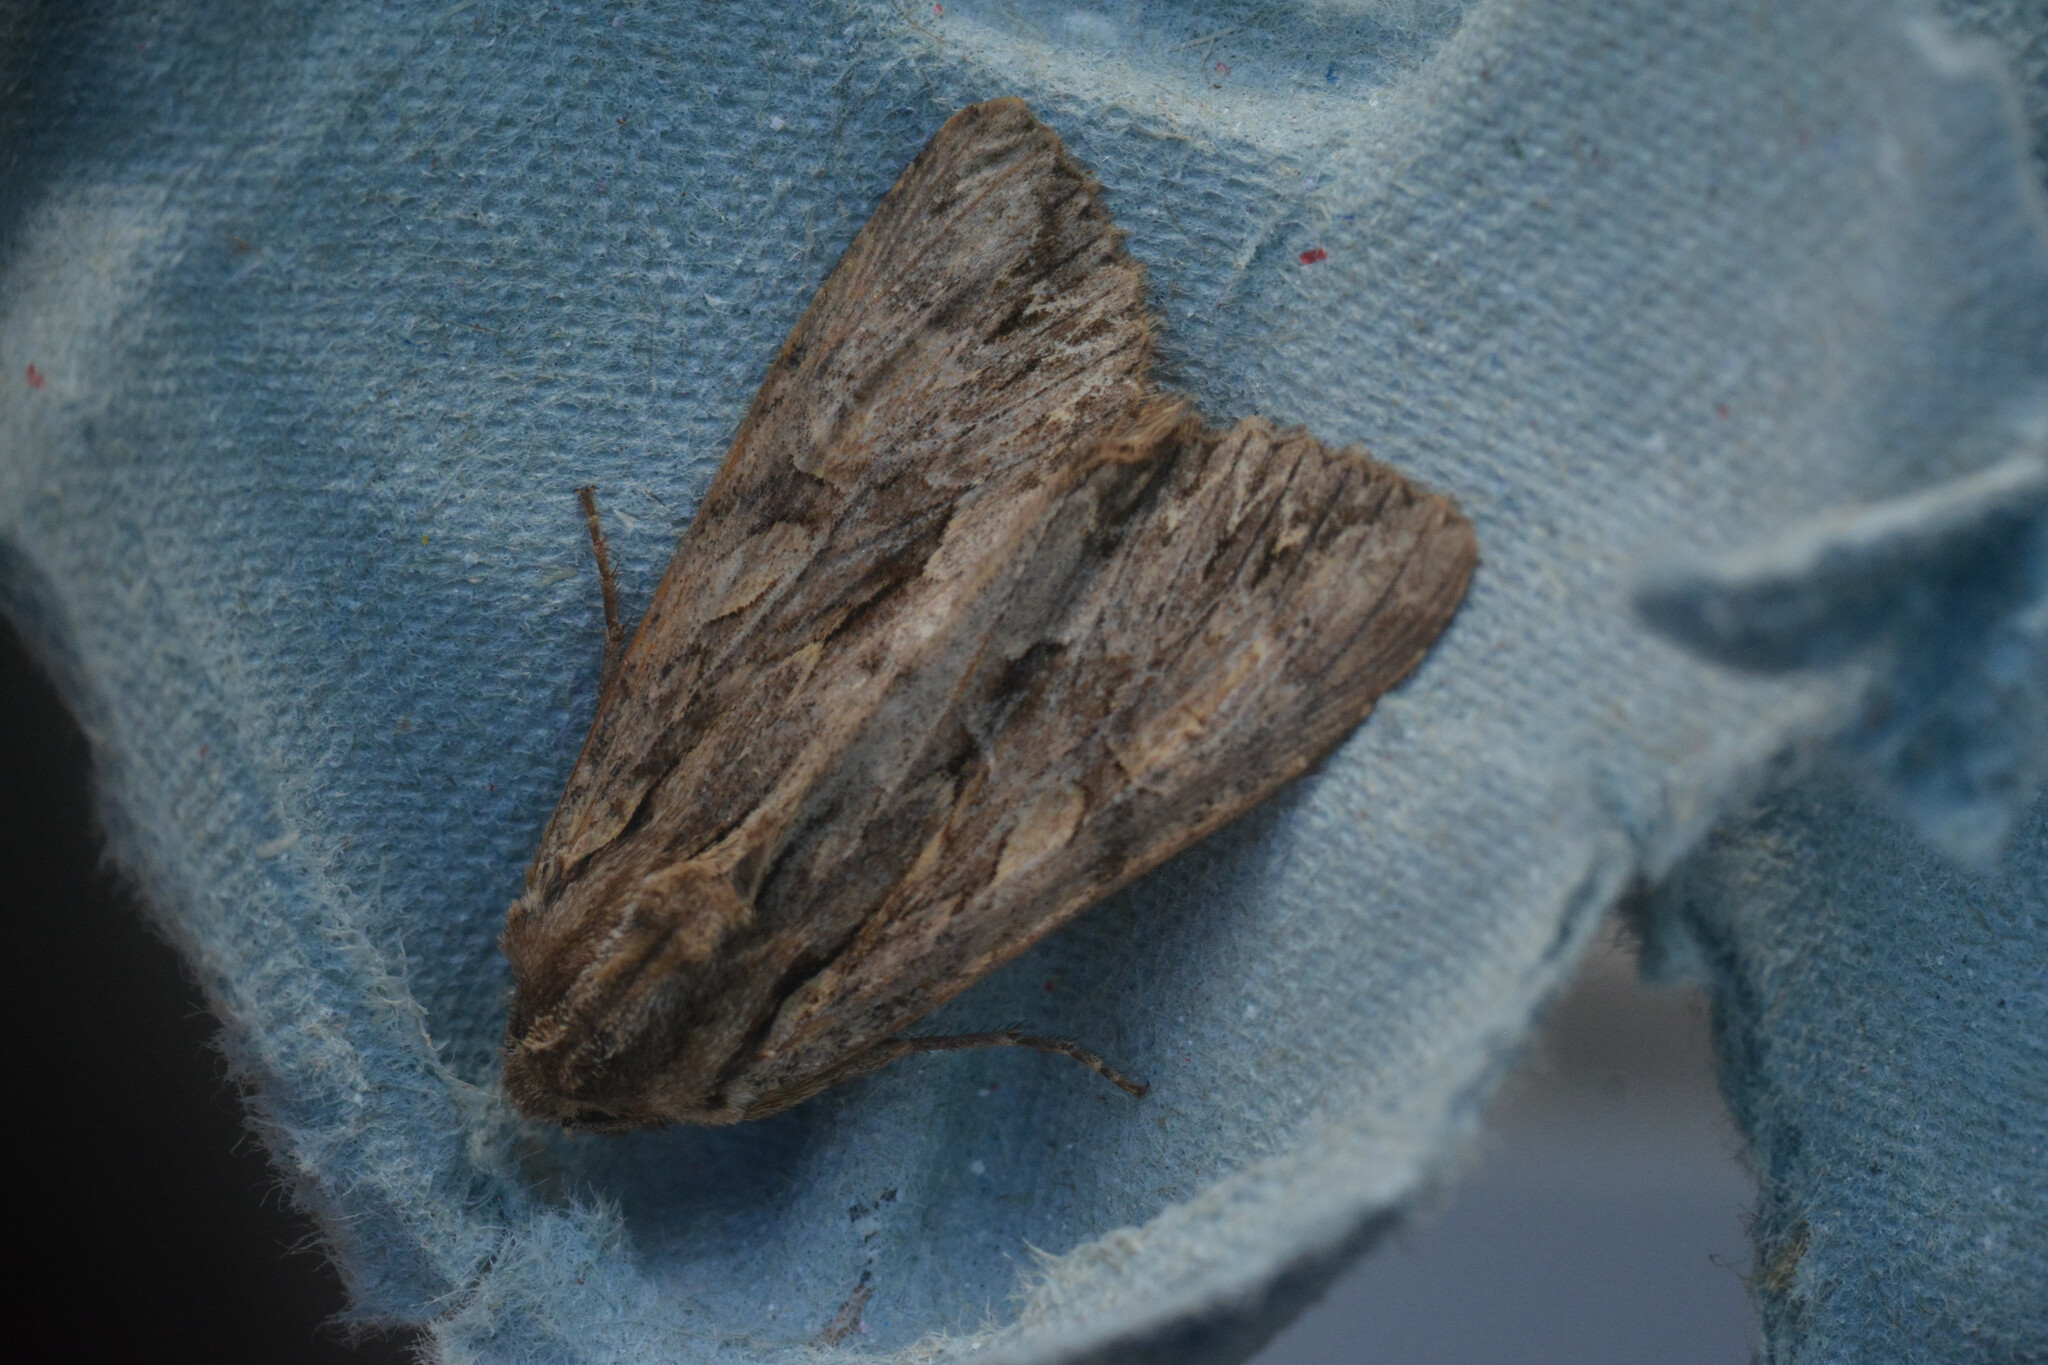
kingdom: Animalia
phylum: Arthropoda
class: Insecta
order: Lepidoptera
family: Noctuidae
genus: Apamea
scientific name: Apamea monoglypha
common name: Dark arches
